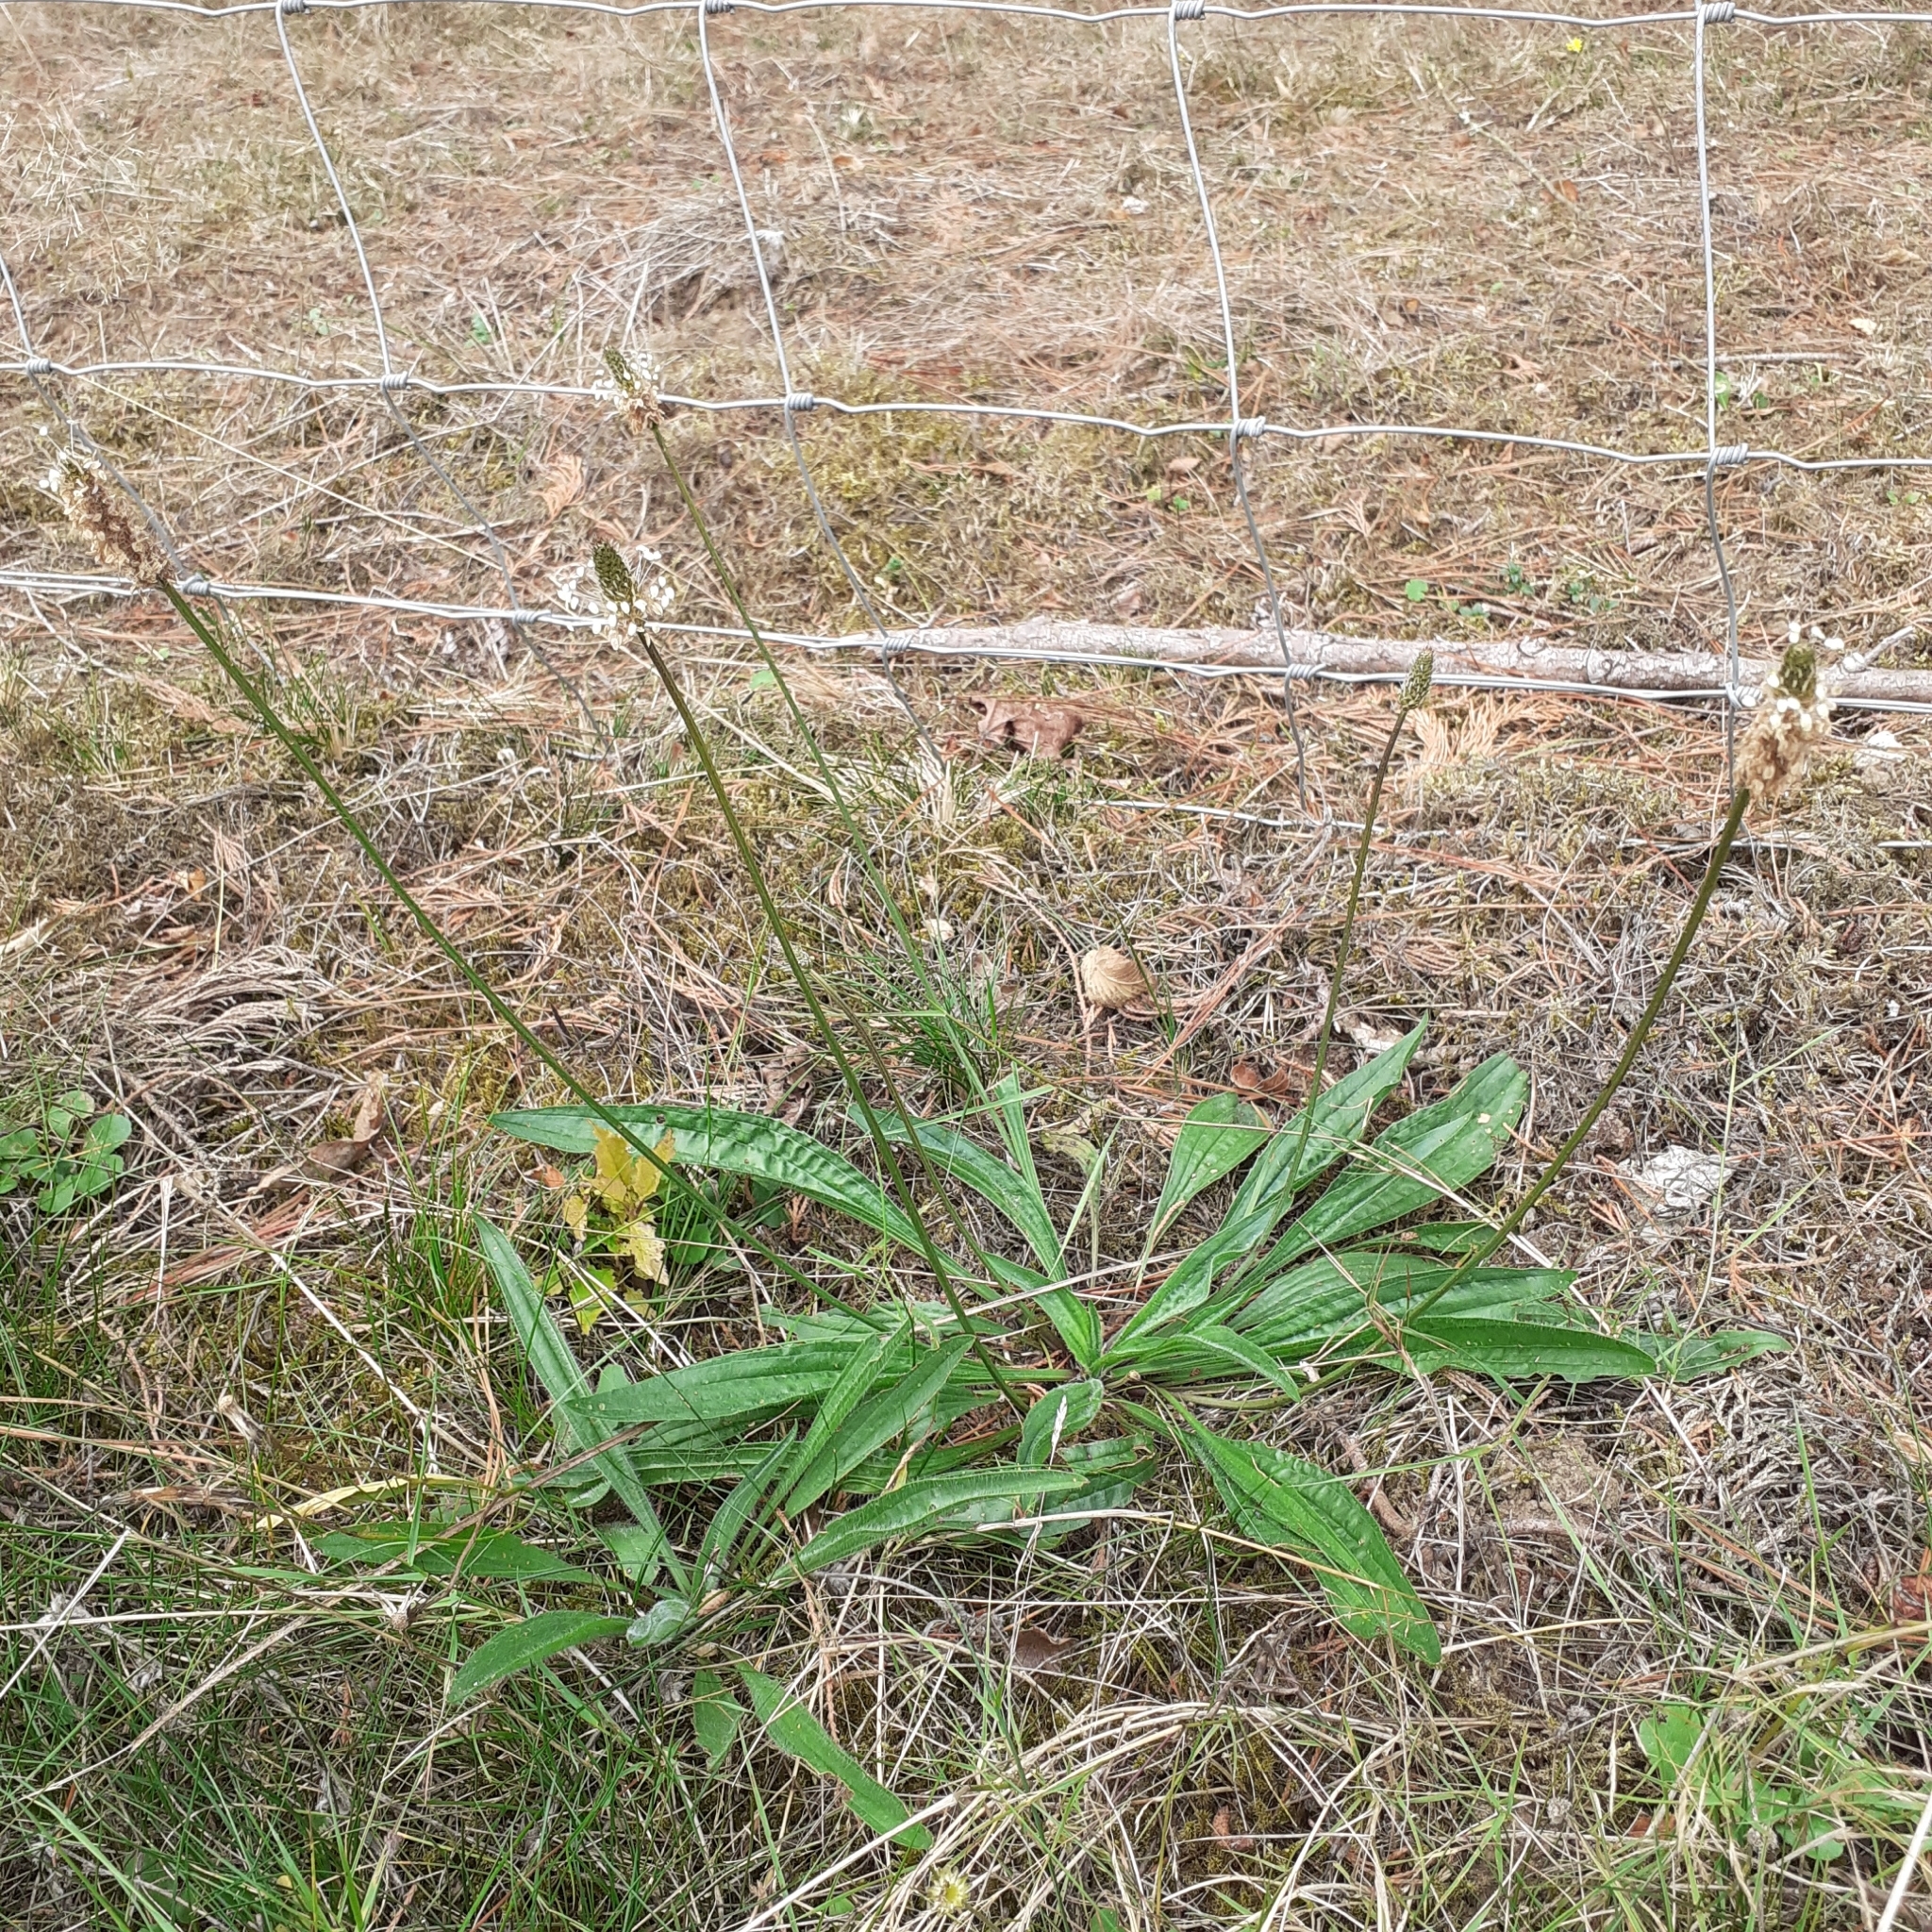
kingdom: Plantae
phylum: Tracheophyta
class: Magnoliopsida
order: Lamiales
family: Plantaginaceae
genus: Plantago
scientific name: Plantago lanceolata
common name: Ribwort plantain
